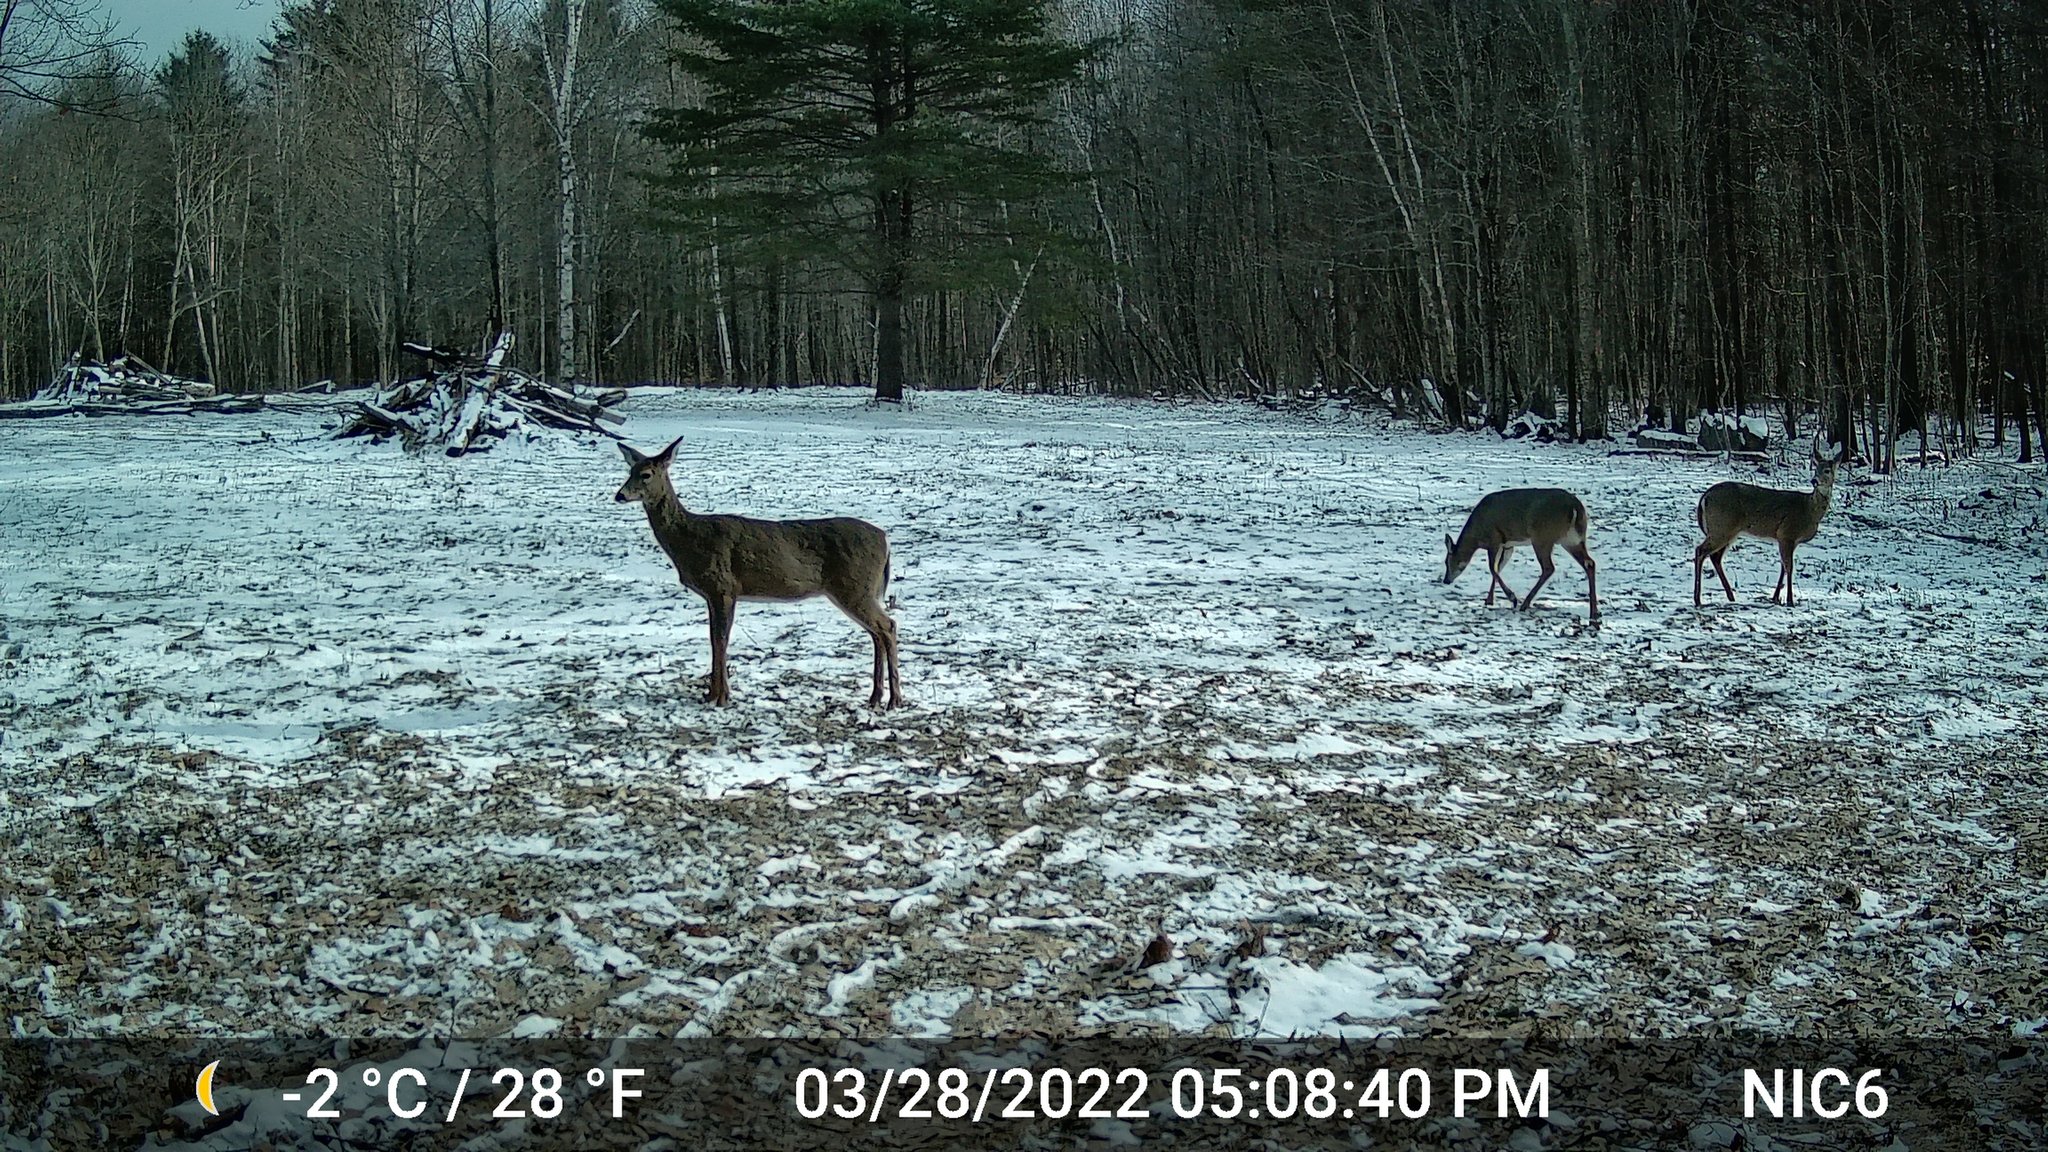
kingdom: Animalia
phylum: Chordata
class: Mammalia
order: Artiodactyla
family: Cervidae
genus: Odocoileus
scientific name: Odocoileus virginianus
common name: White-tailed deer
